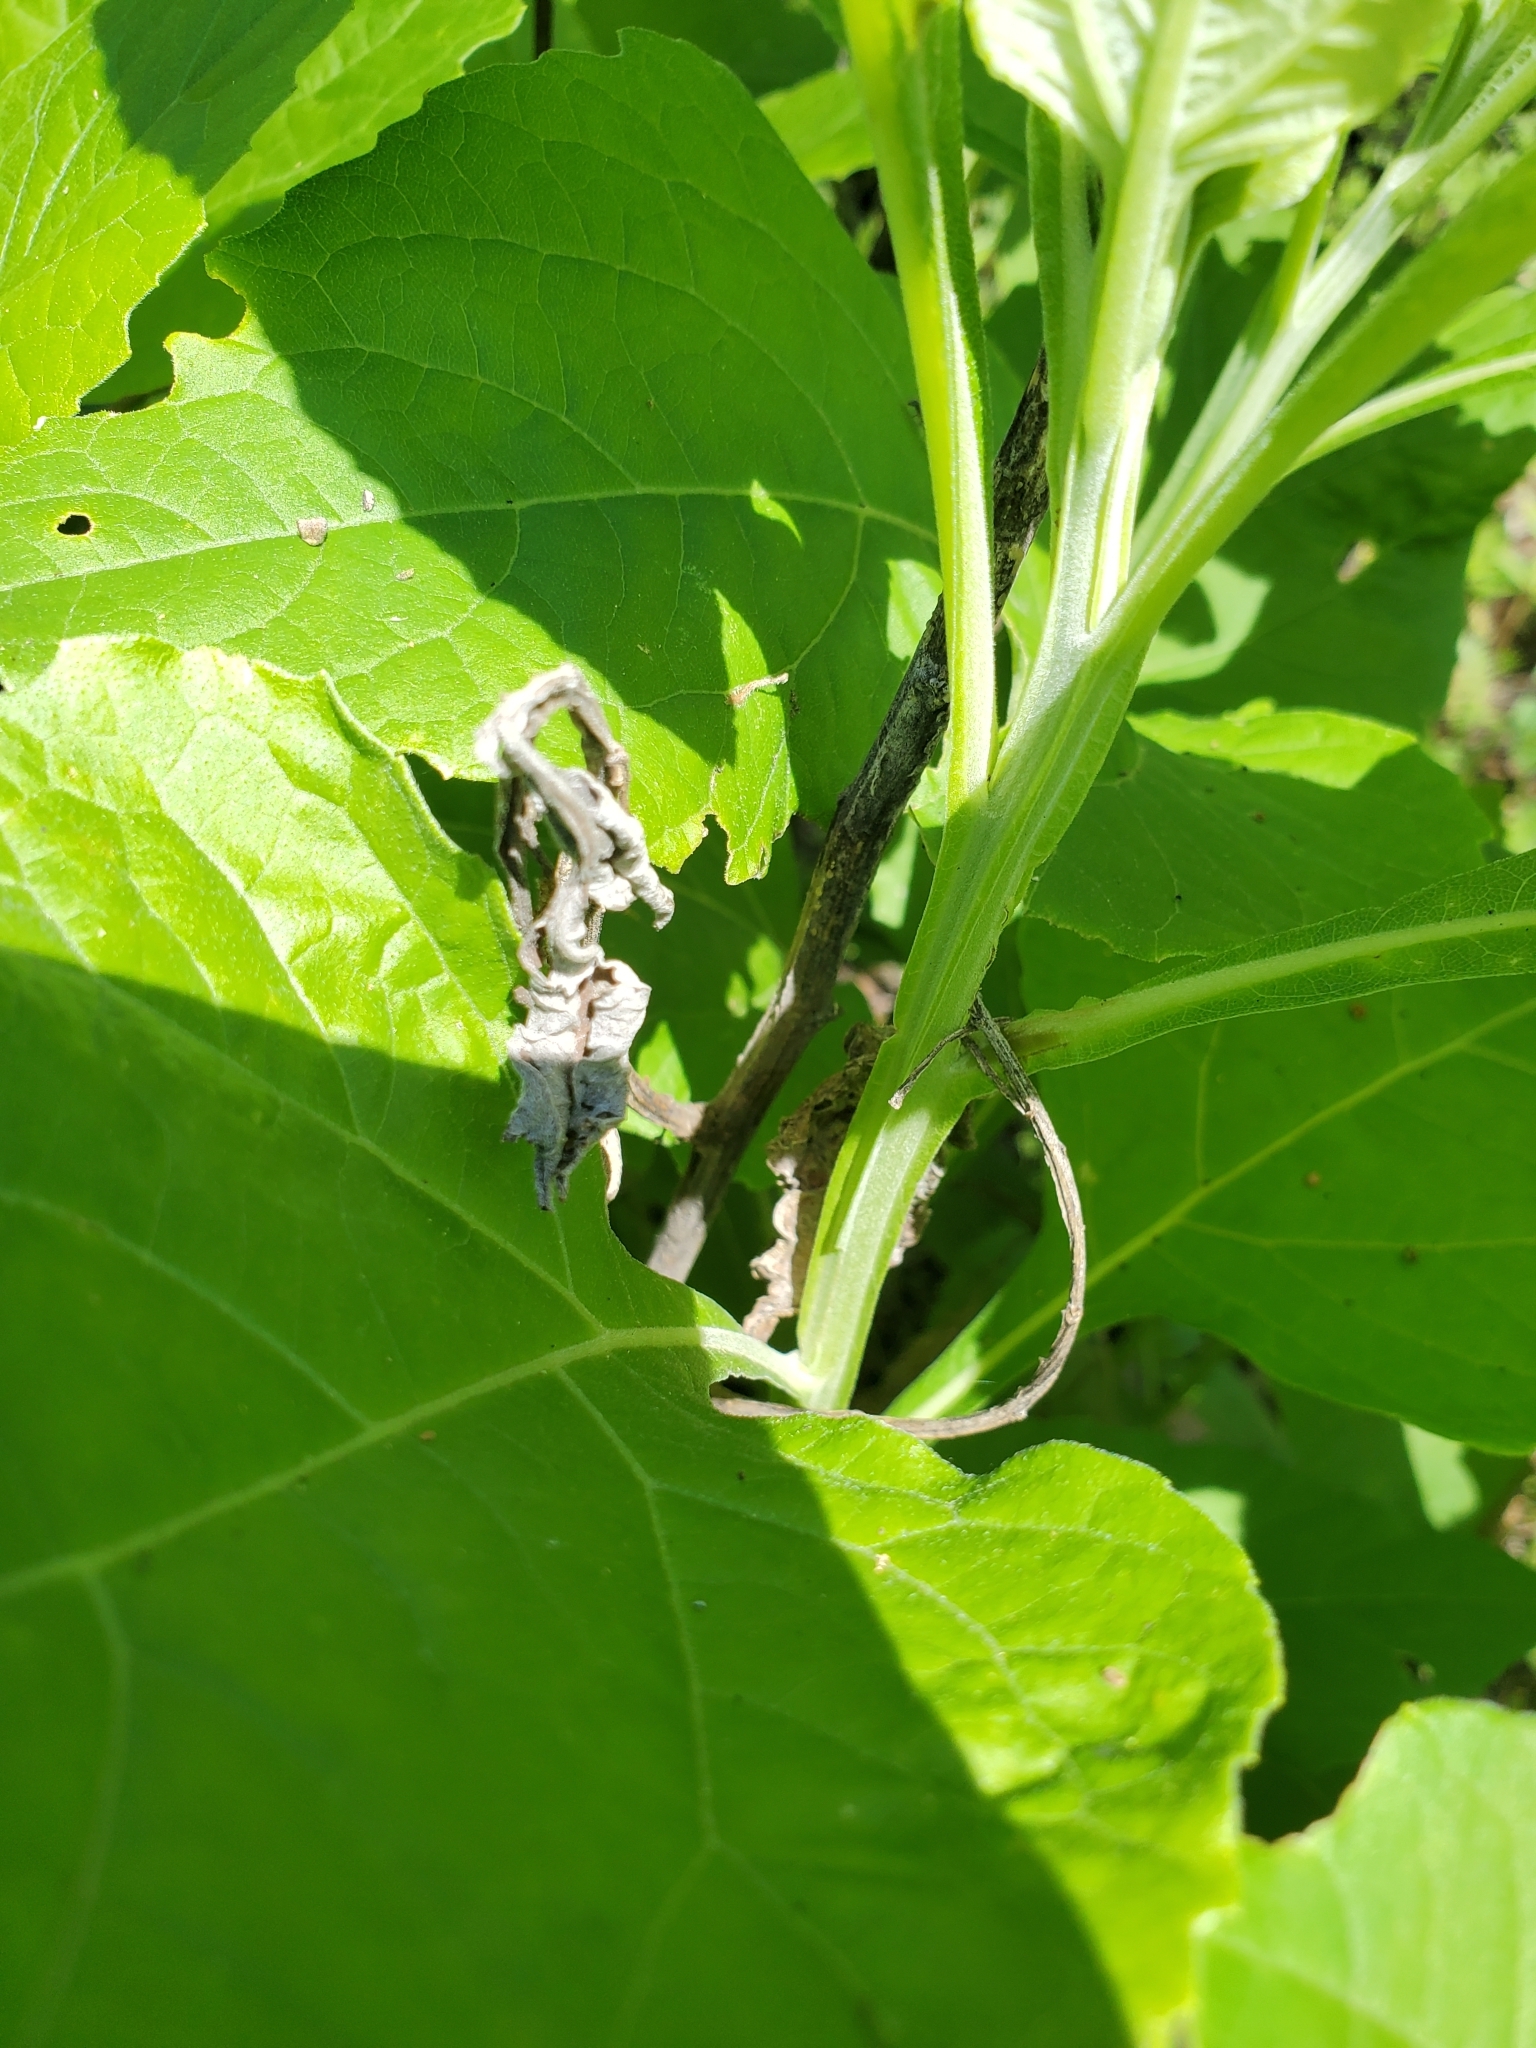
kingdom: Plantae
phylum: Tracheophyta
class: Magnoliopsida
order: Asterales
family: Asteraceae
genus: Verbesina
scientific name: Verbesina virginica
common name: Frostweed
